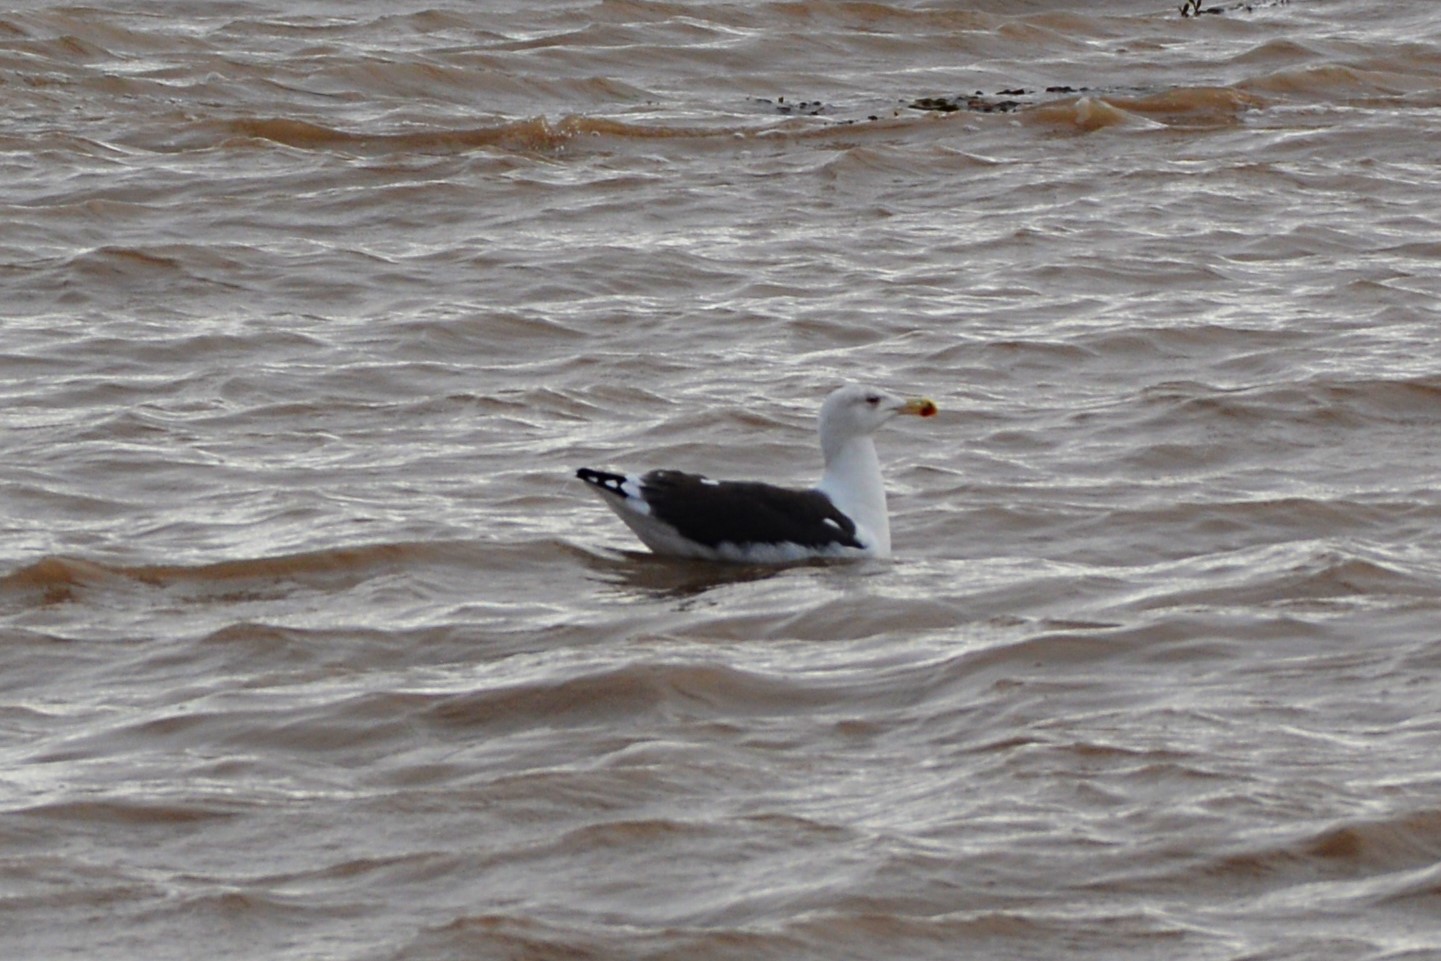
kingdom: Animalia
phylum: Chordata
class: Aves
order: Charadriiformes
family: Laridae
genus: Larus
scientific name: Larus marinus
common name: Great black-backed gull
